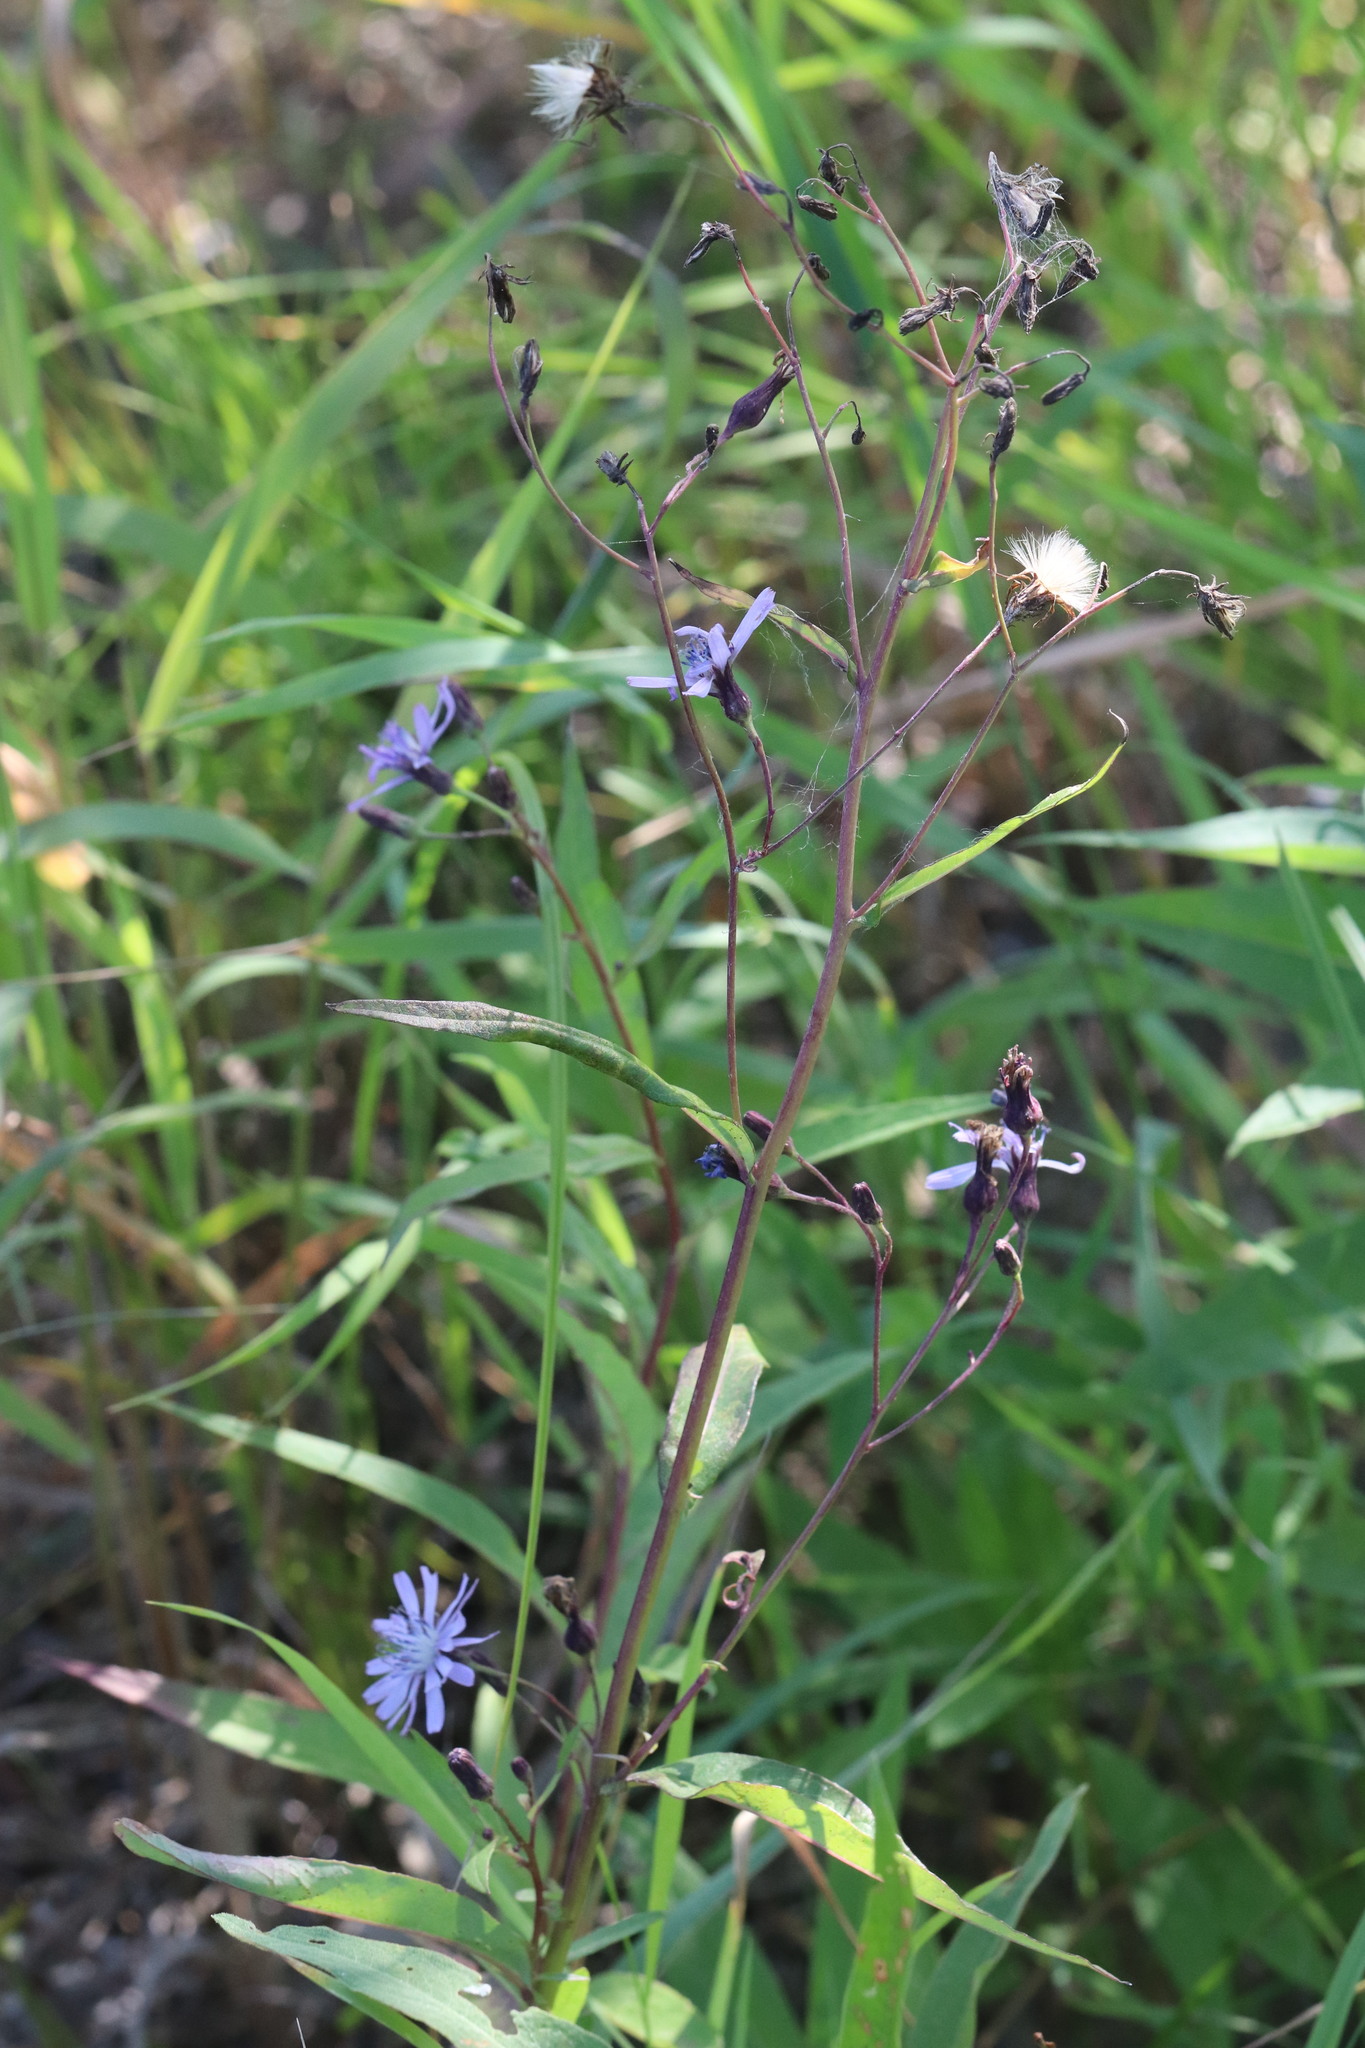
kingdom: Plantae
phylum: Tracheophyta
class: Magnoliopsida
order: Asterales
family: Asteraceae
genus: Lactuca
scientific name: Lactuca sibirica
